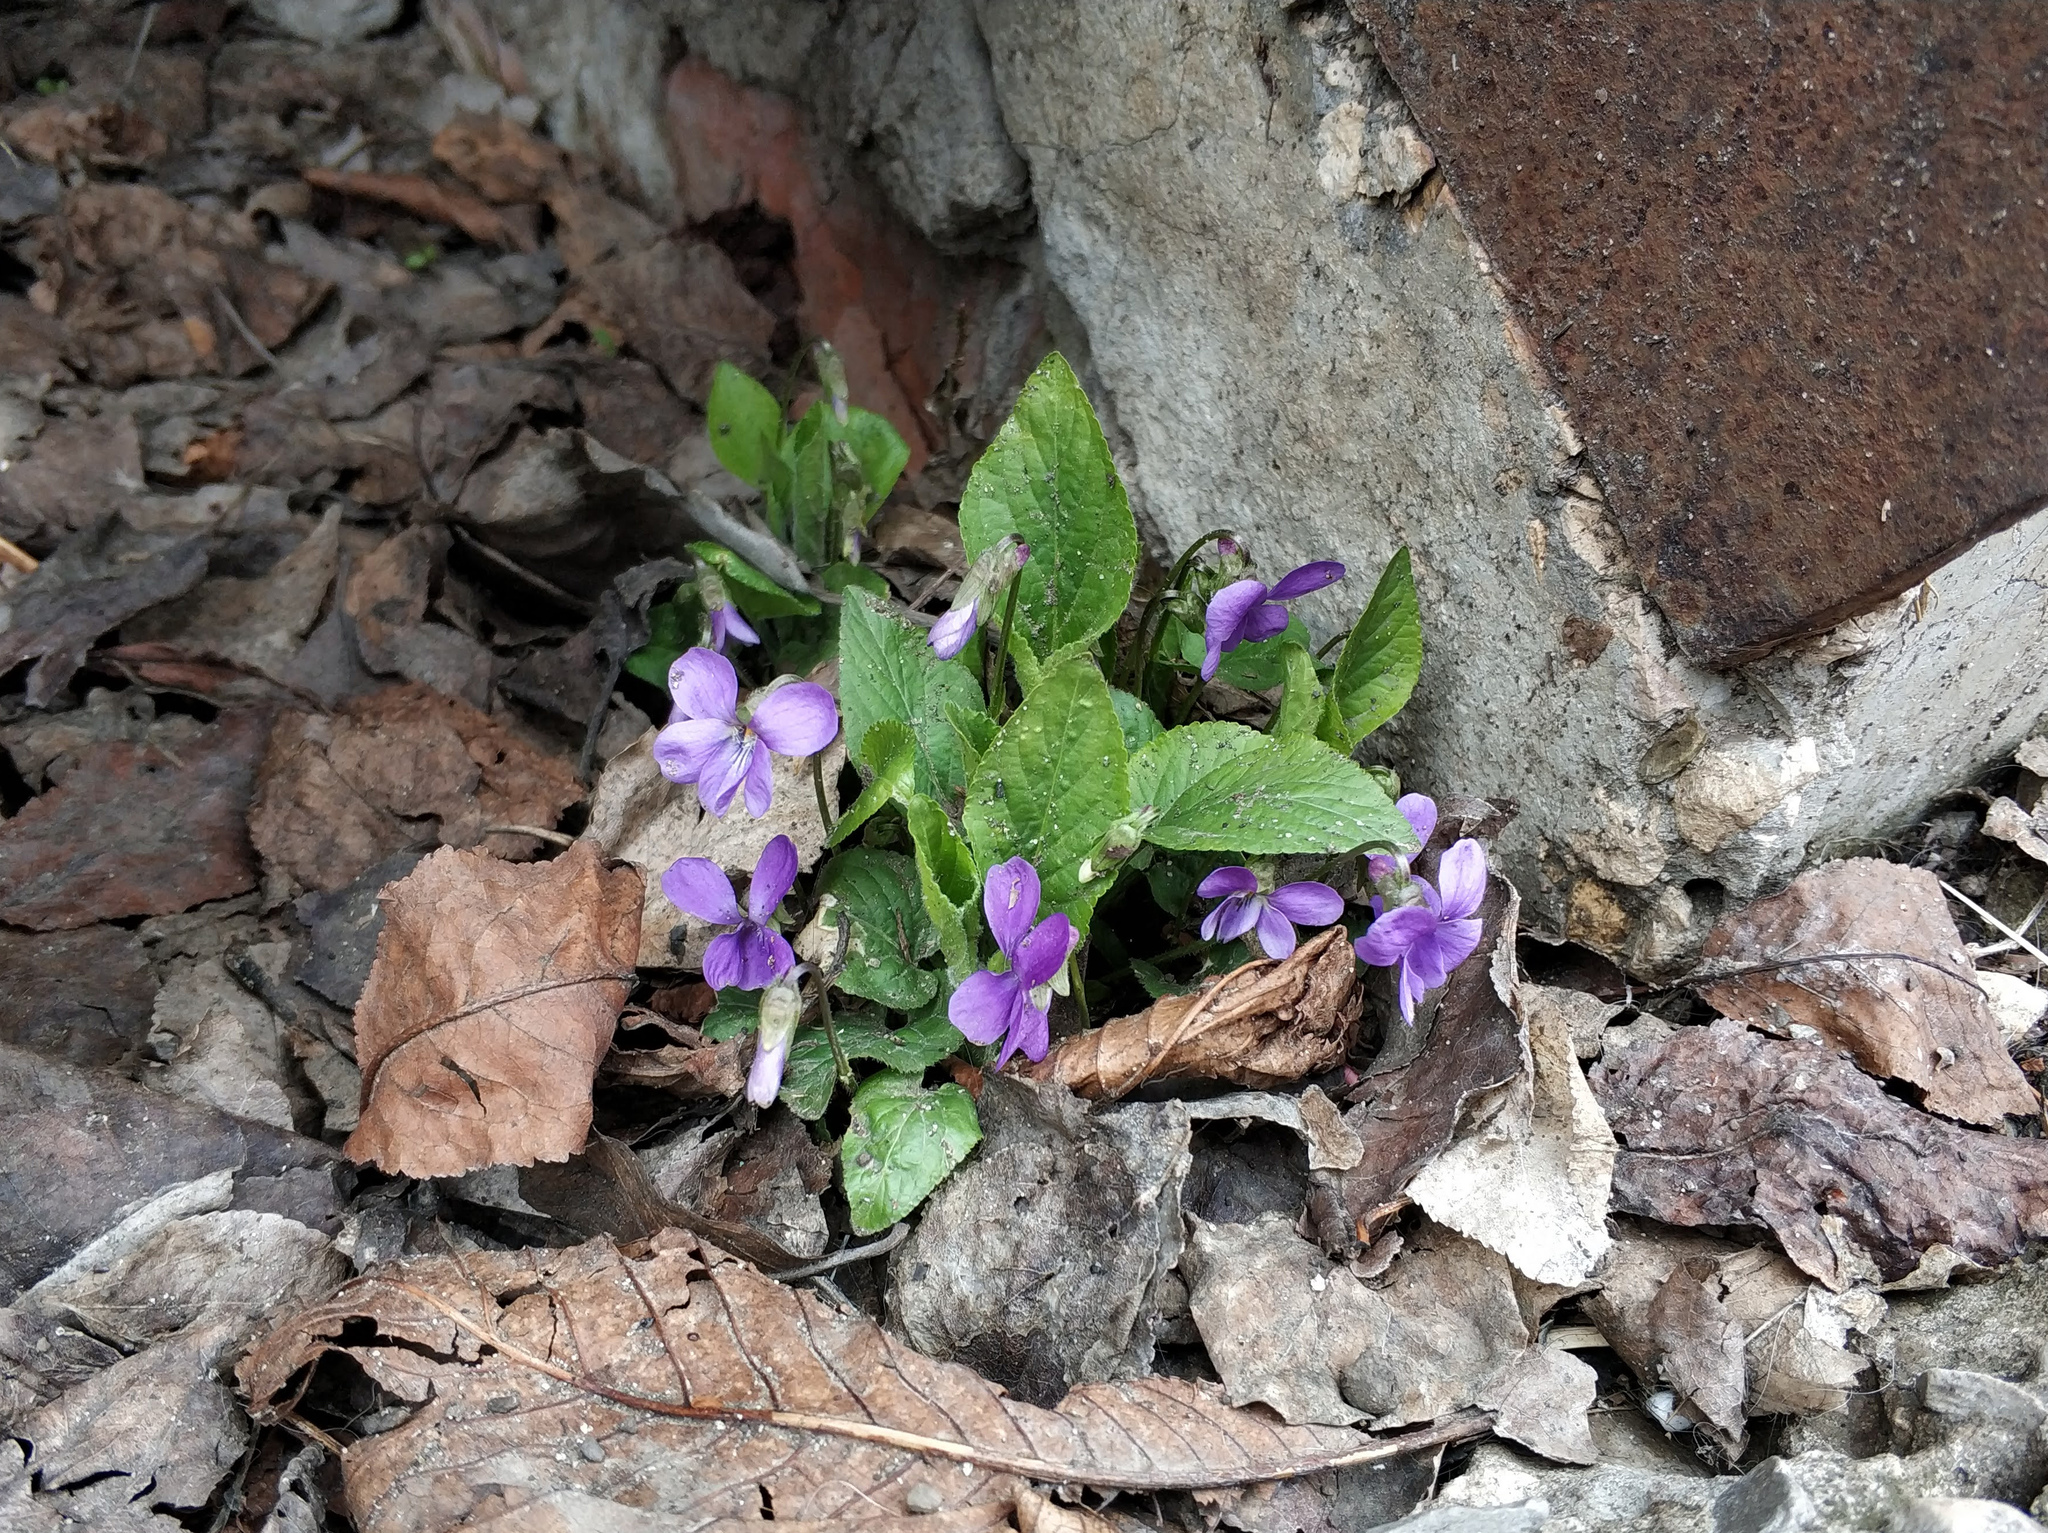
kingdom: Plantae
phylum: Tracheophyta
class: Magnoliopsida
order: Malpighiales
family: Violaceae
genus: Viola
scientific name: Viola hirta
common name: Hairy violet
